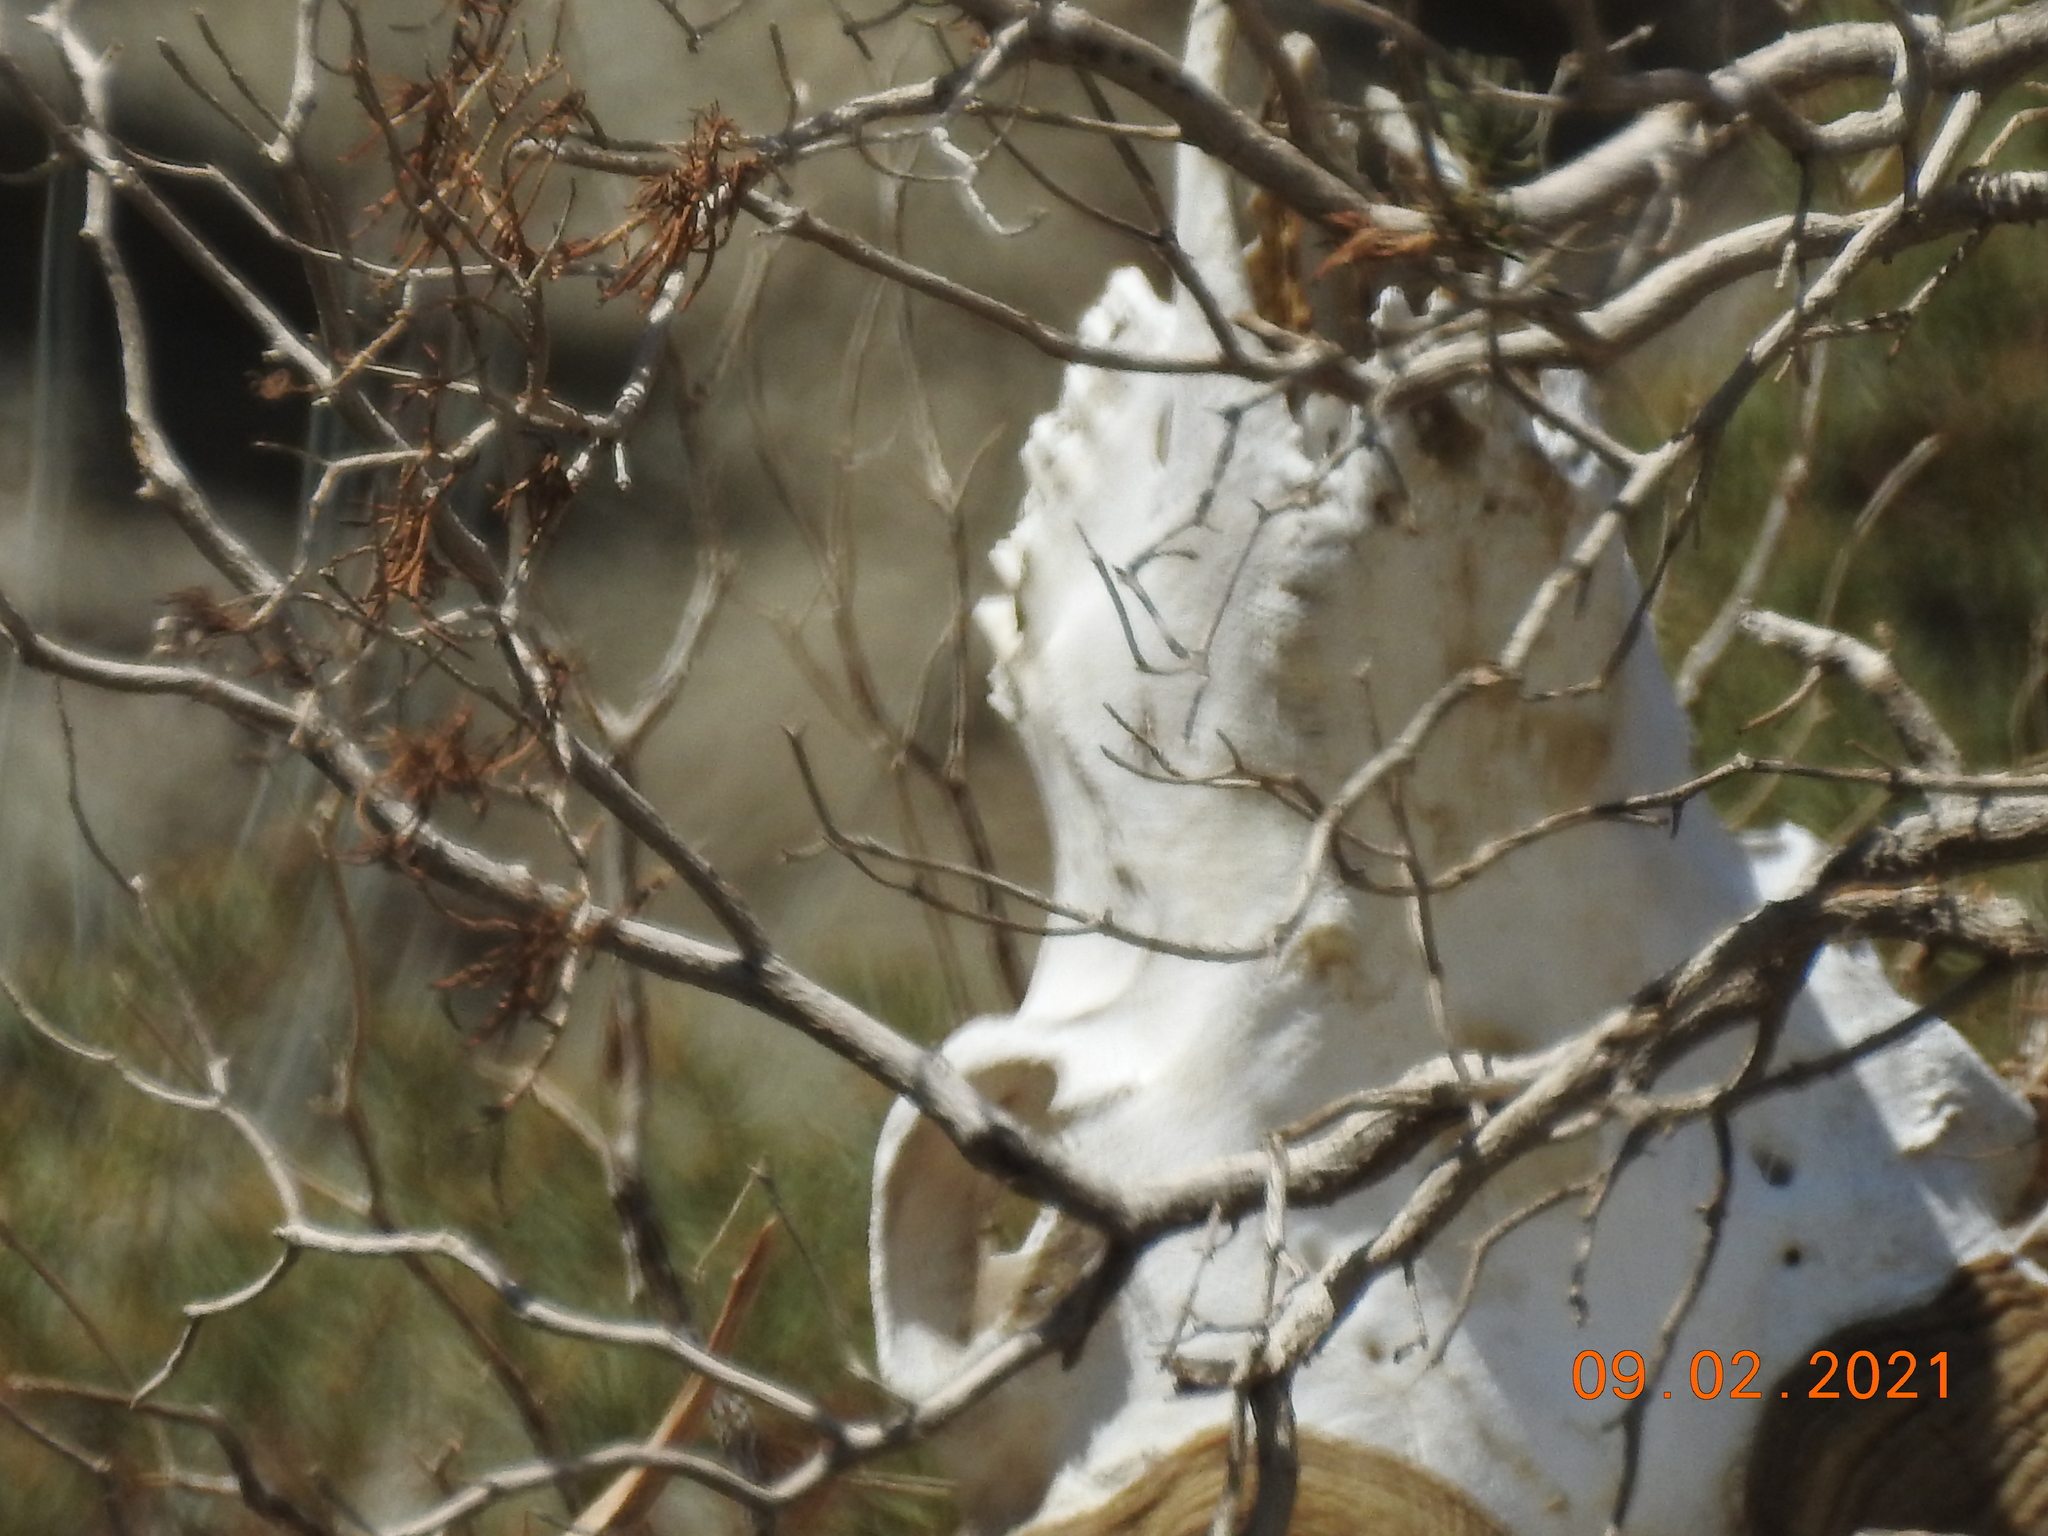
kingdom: Animalia
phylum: Chordata
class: Mammalia
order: Artiodactyla
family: Bovidae
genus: Ovis
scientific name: Ovis canadensis
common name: Bighorn sheep
